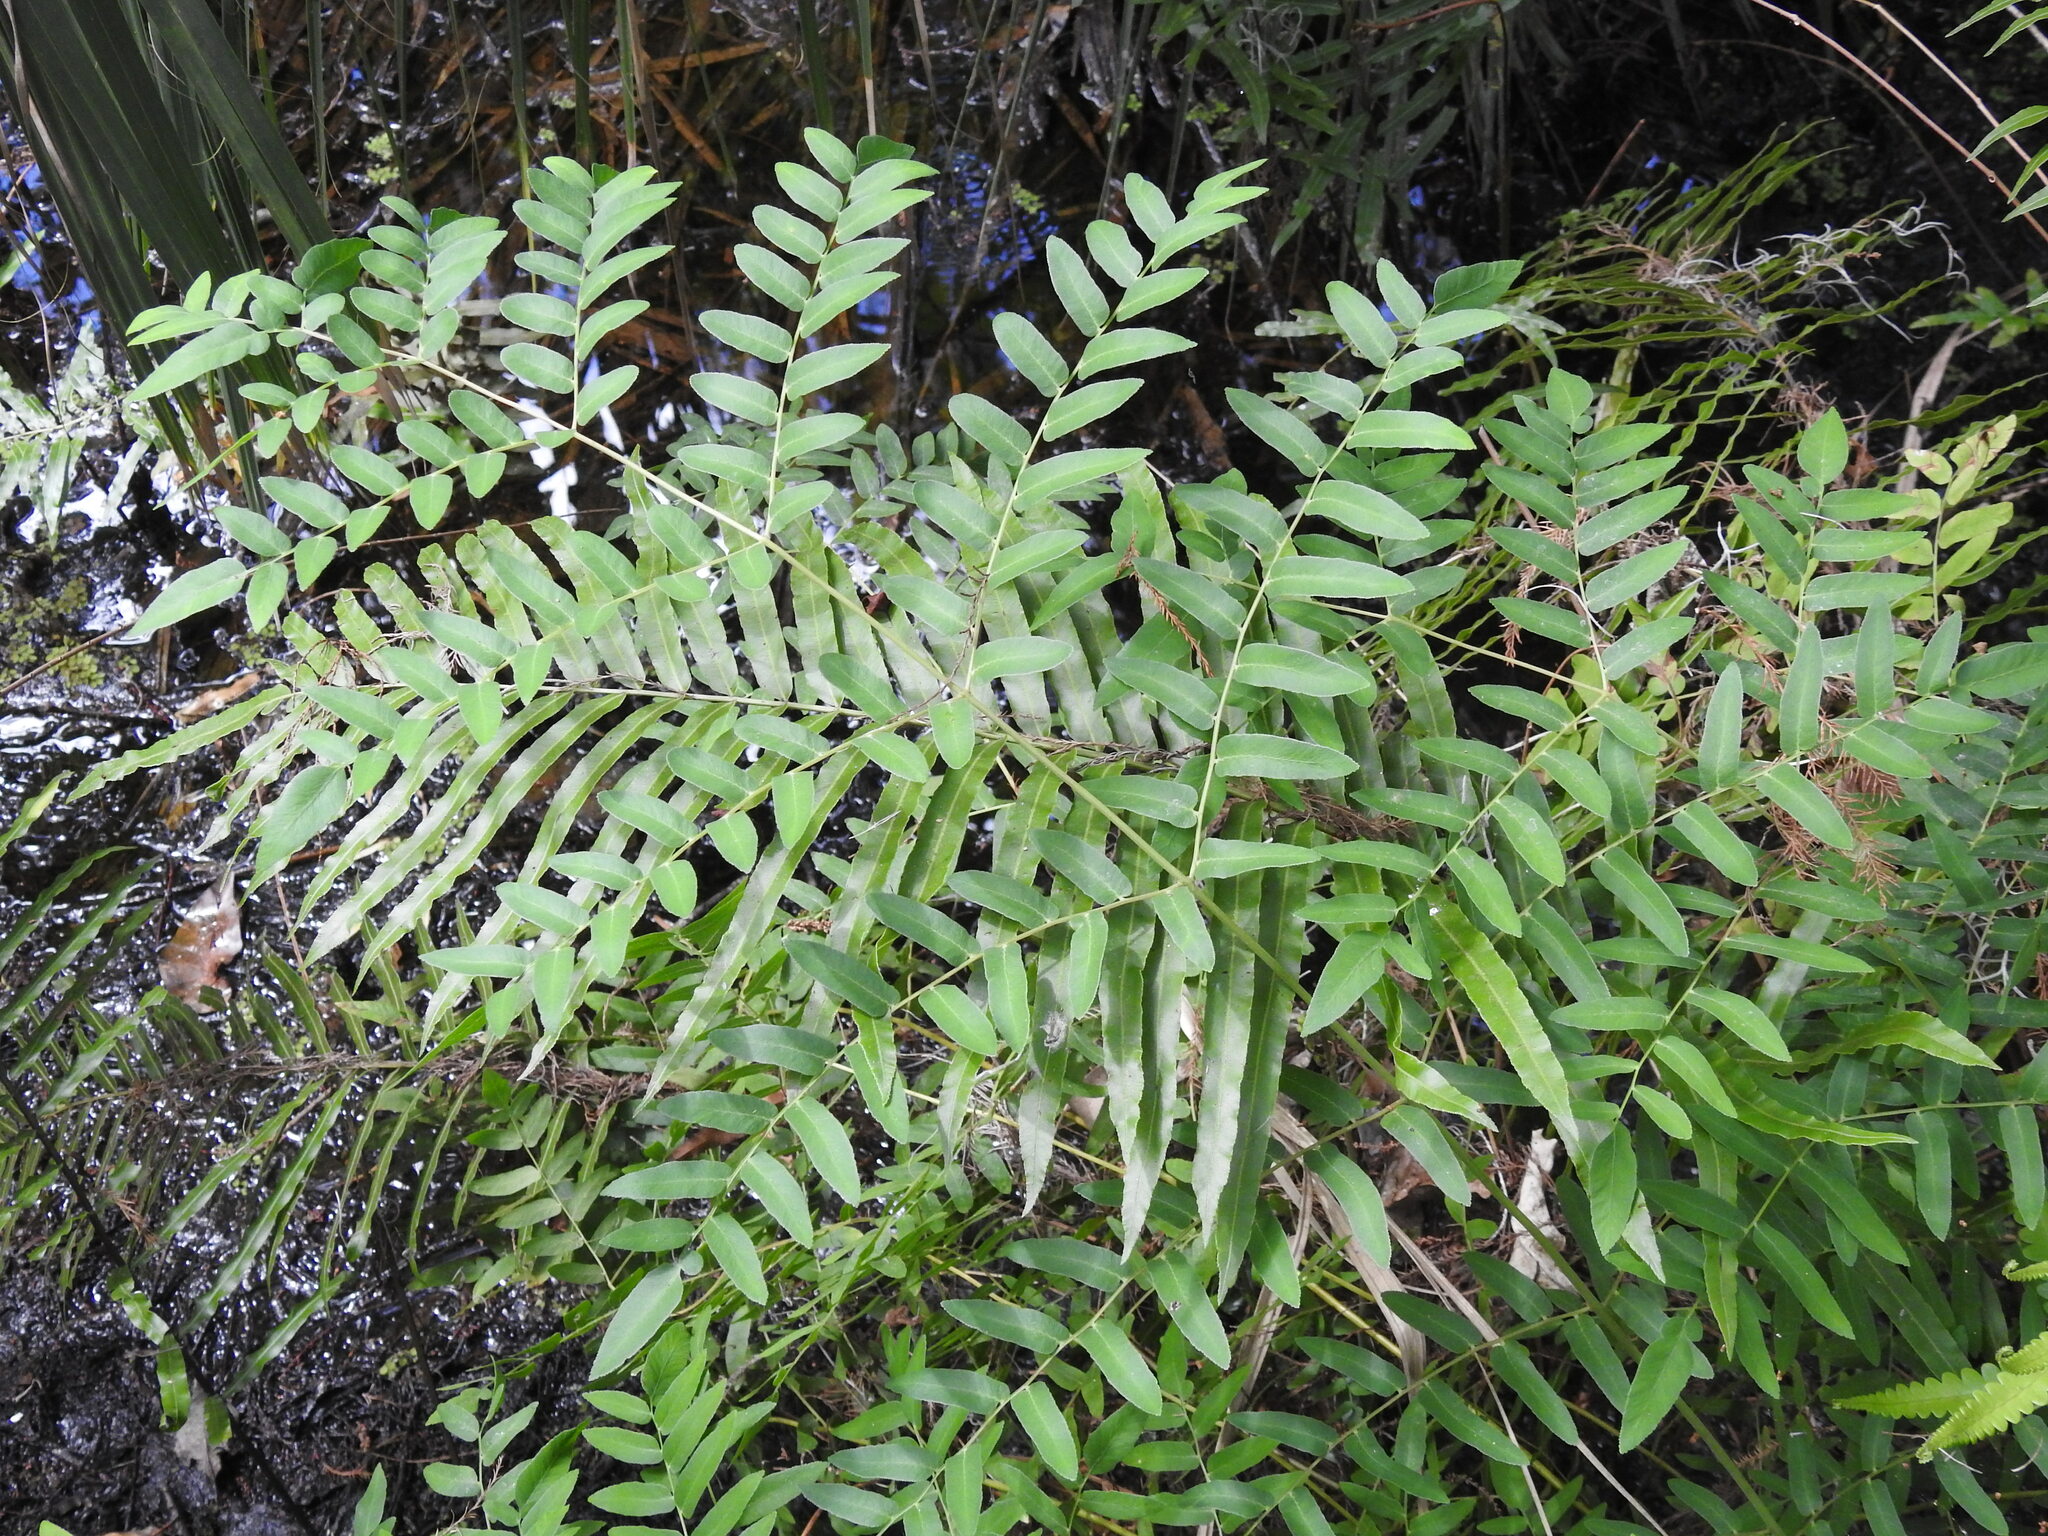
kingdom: Plantae
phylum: Tracheophyta
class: Polypodiopsida
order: Osmundales
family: Osmundaceae
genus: Osmunda
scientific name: Osmunda spectabilis
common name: American royal fern
